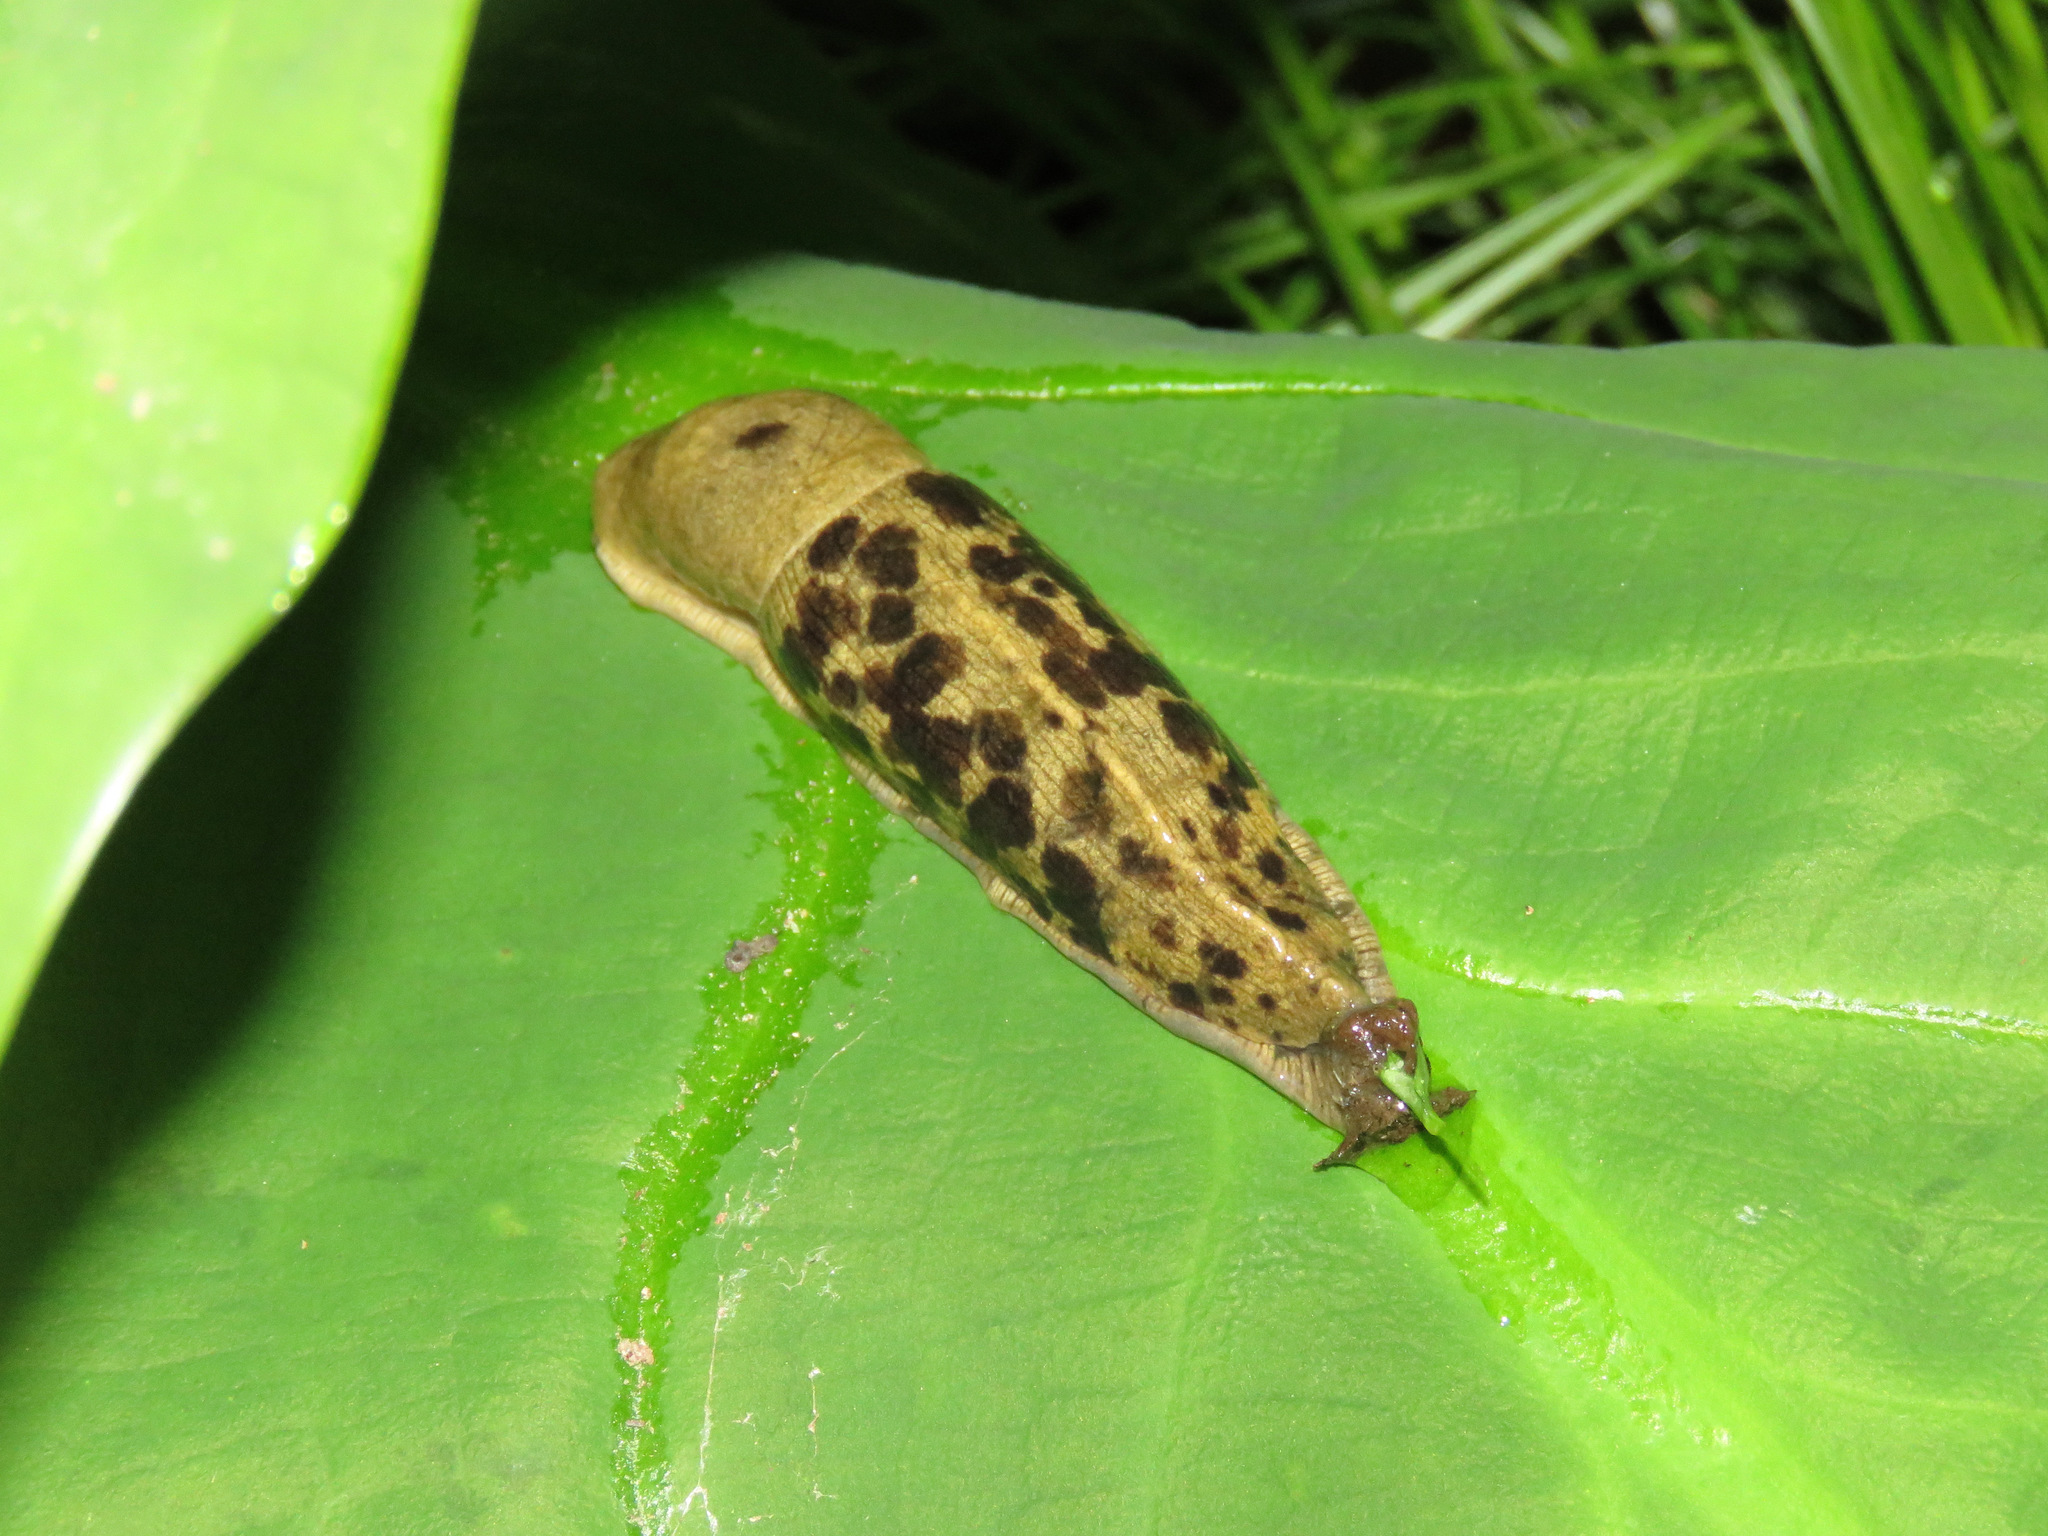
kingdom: Animalia
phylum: Mollusca
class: Gastropoda
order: Stylommatophora
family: Ariolimacidae
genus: Ariolimax
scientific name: Ariolimax columbianus
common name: Pacific banana slug
